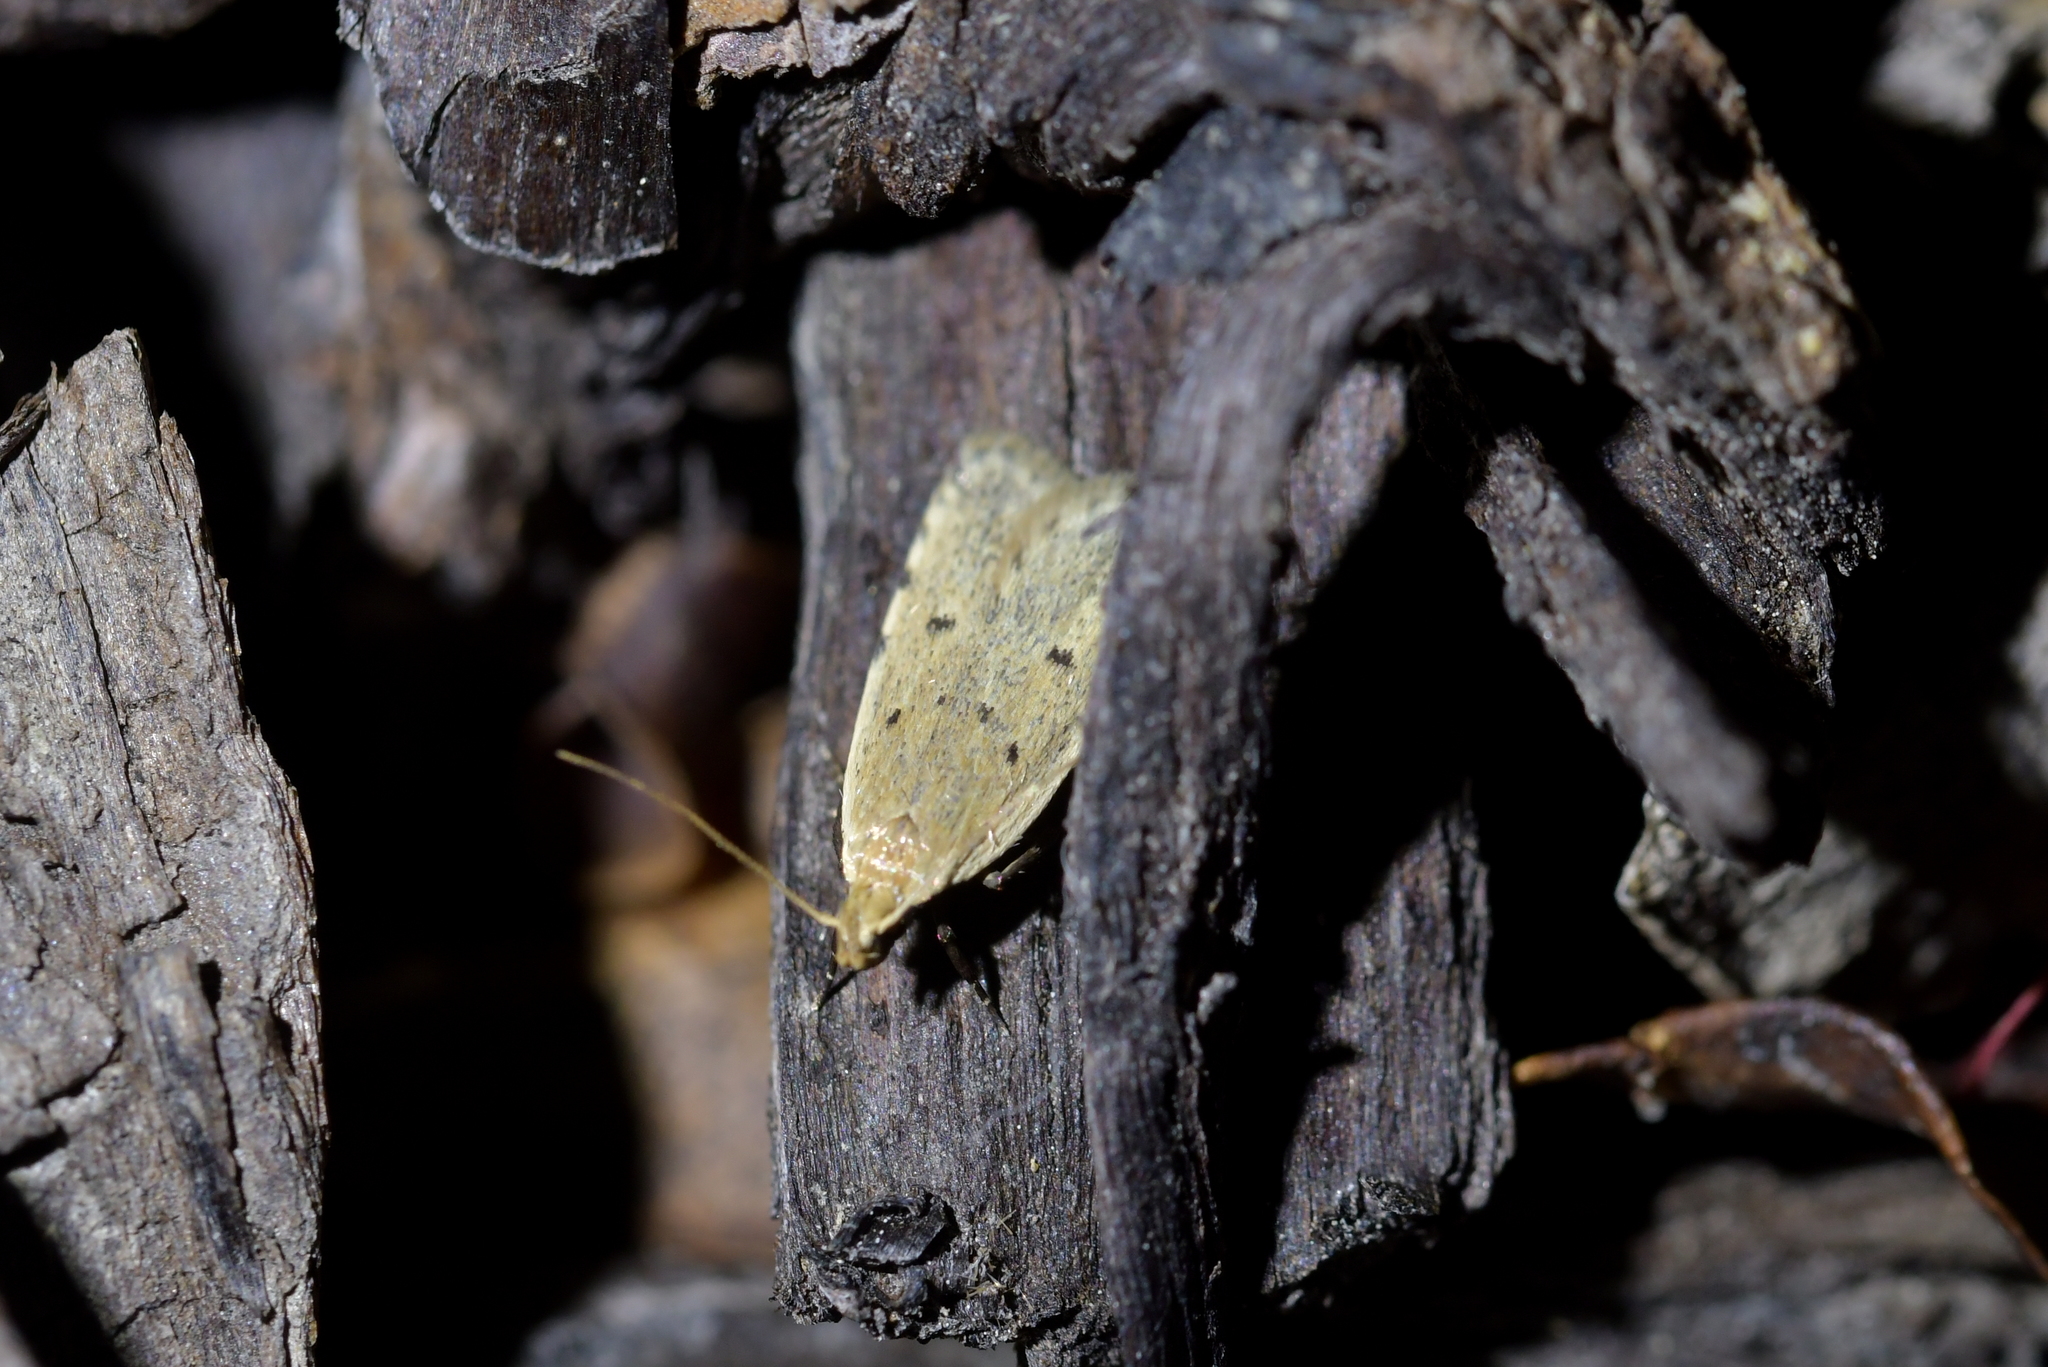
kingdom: Animalia
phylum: Arthropoda
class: Insecta
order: Lepidoptera
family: Oecophoridae
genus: Gymnobathra
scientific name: Gymnobathra calliploca
